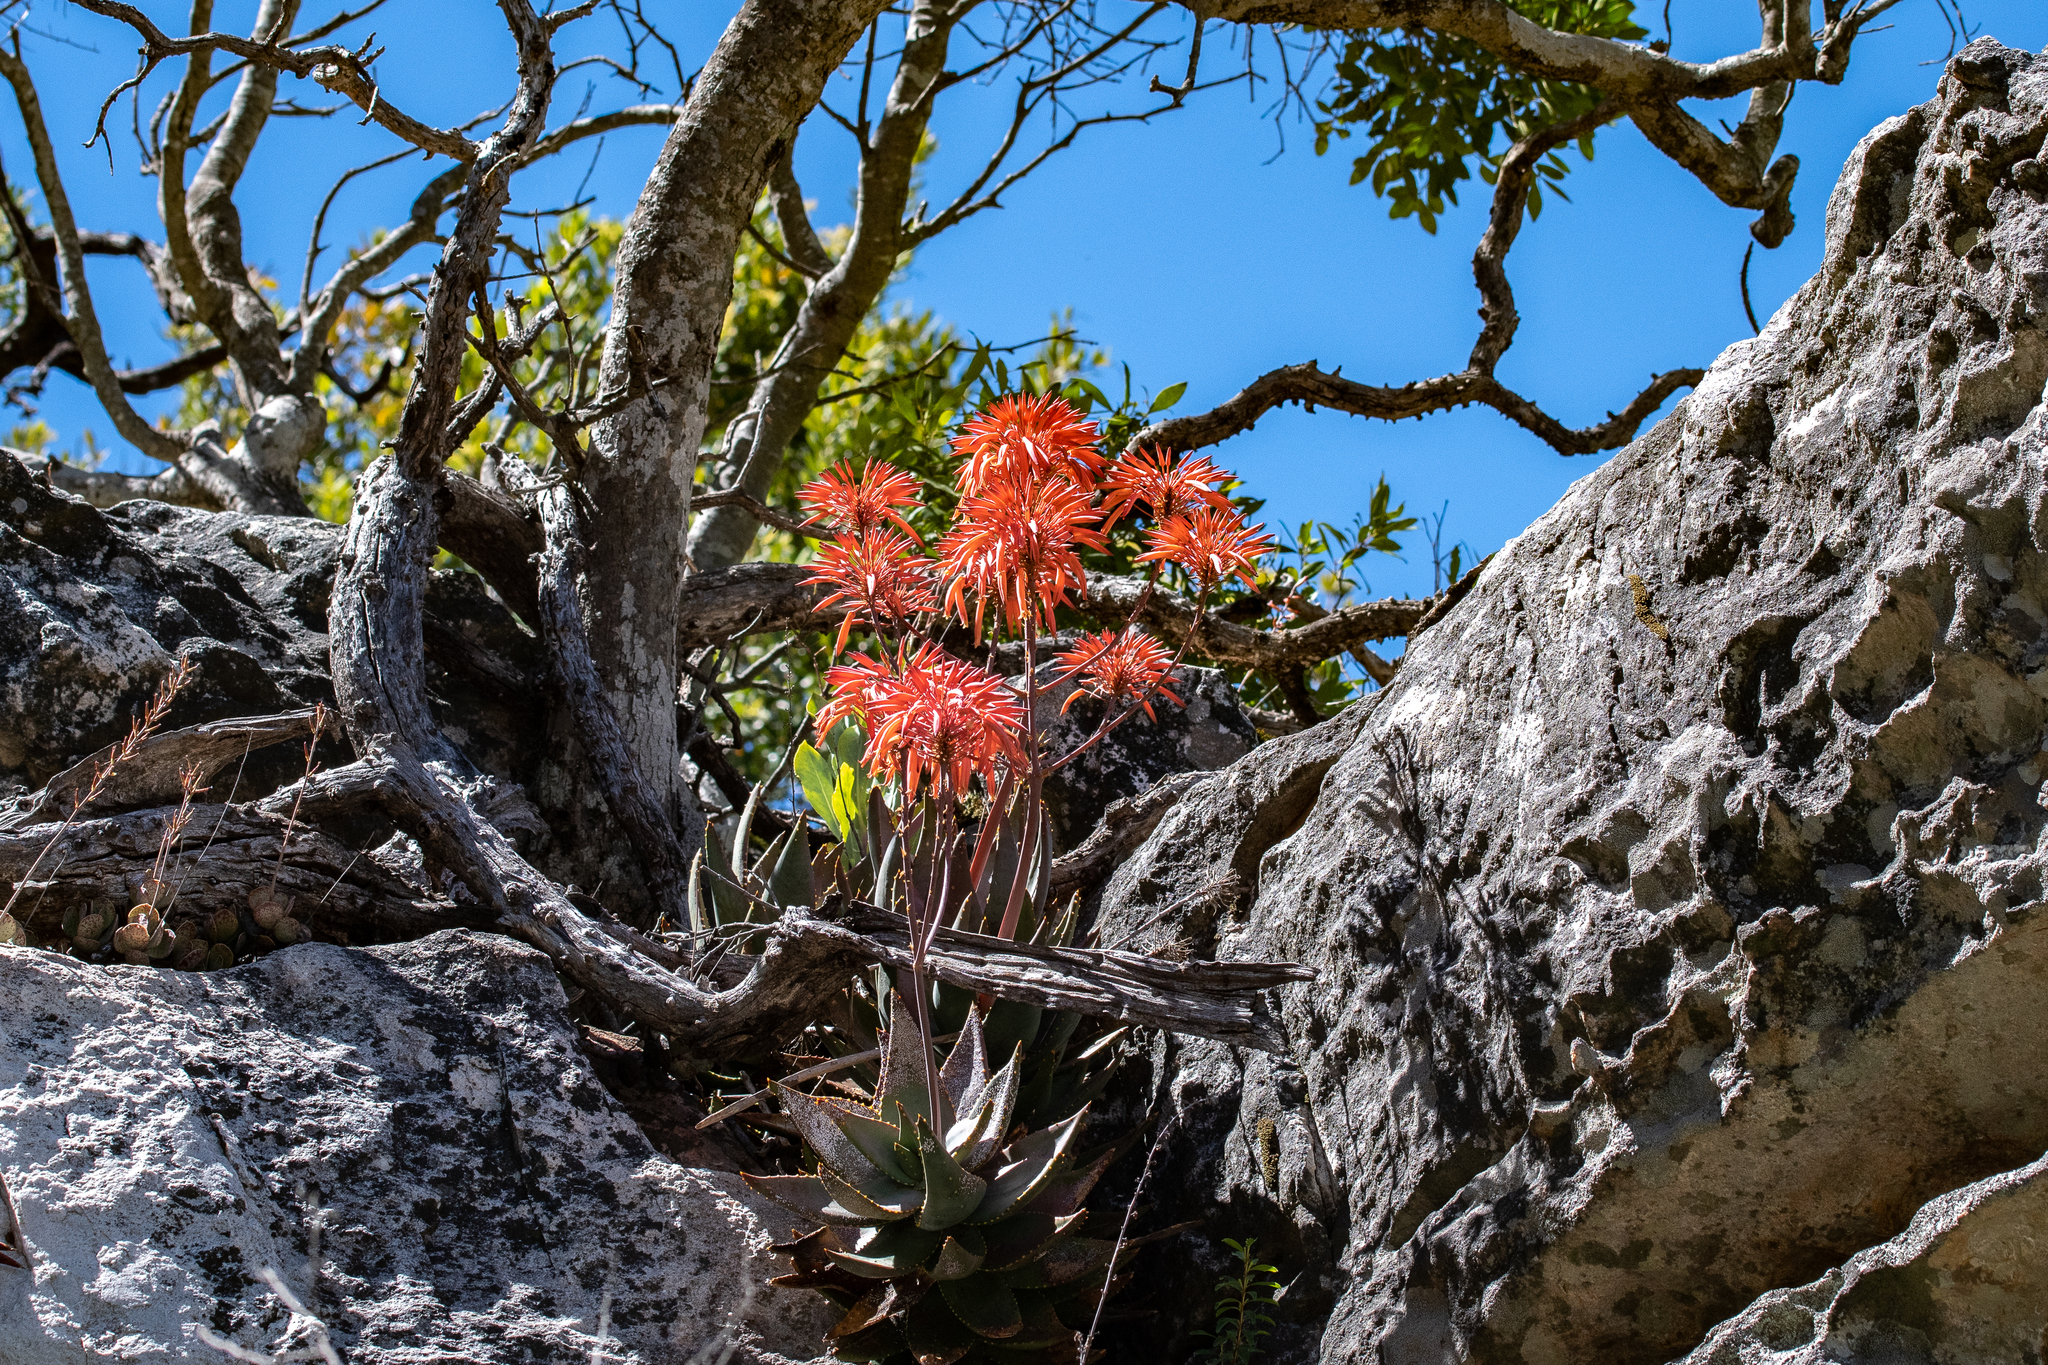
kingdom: Plantae
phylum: Tracheophyta
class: Liliopsida
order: Asparagales
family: Asphodelaceae
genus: Aloe
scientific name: Aloe perfoliata
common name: Mitra aloe
